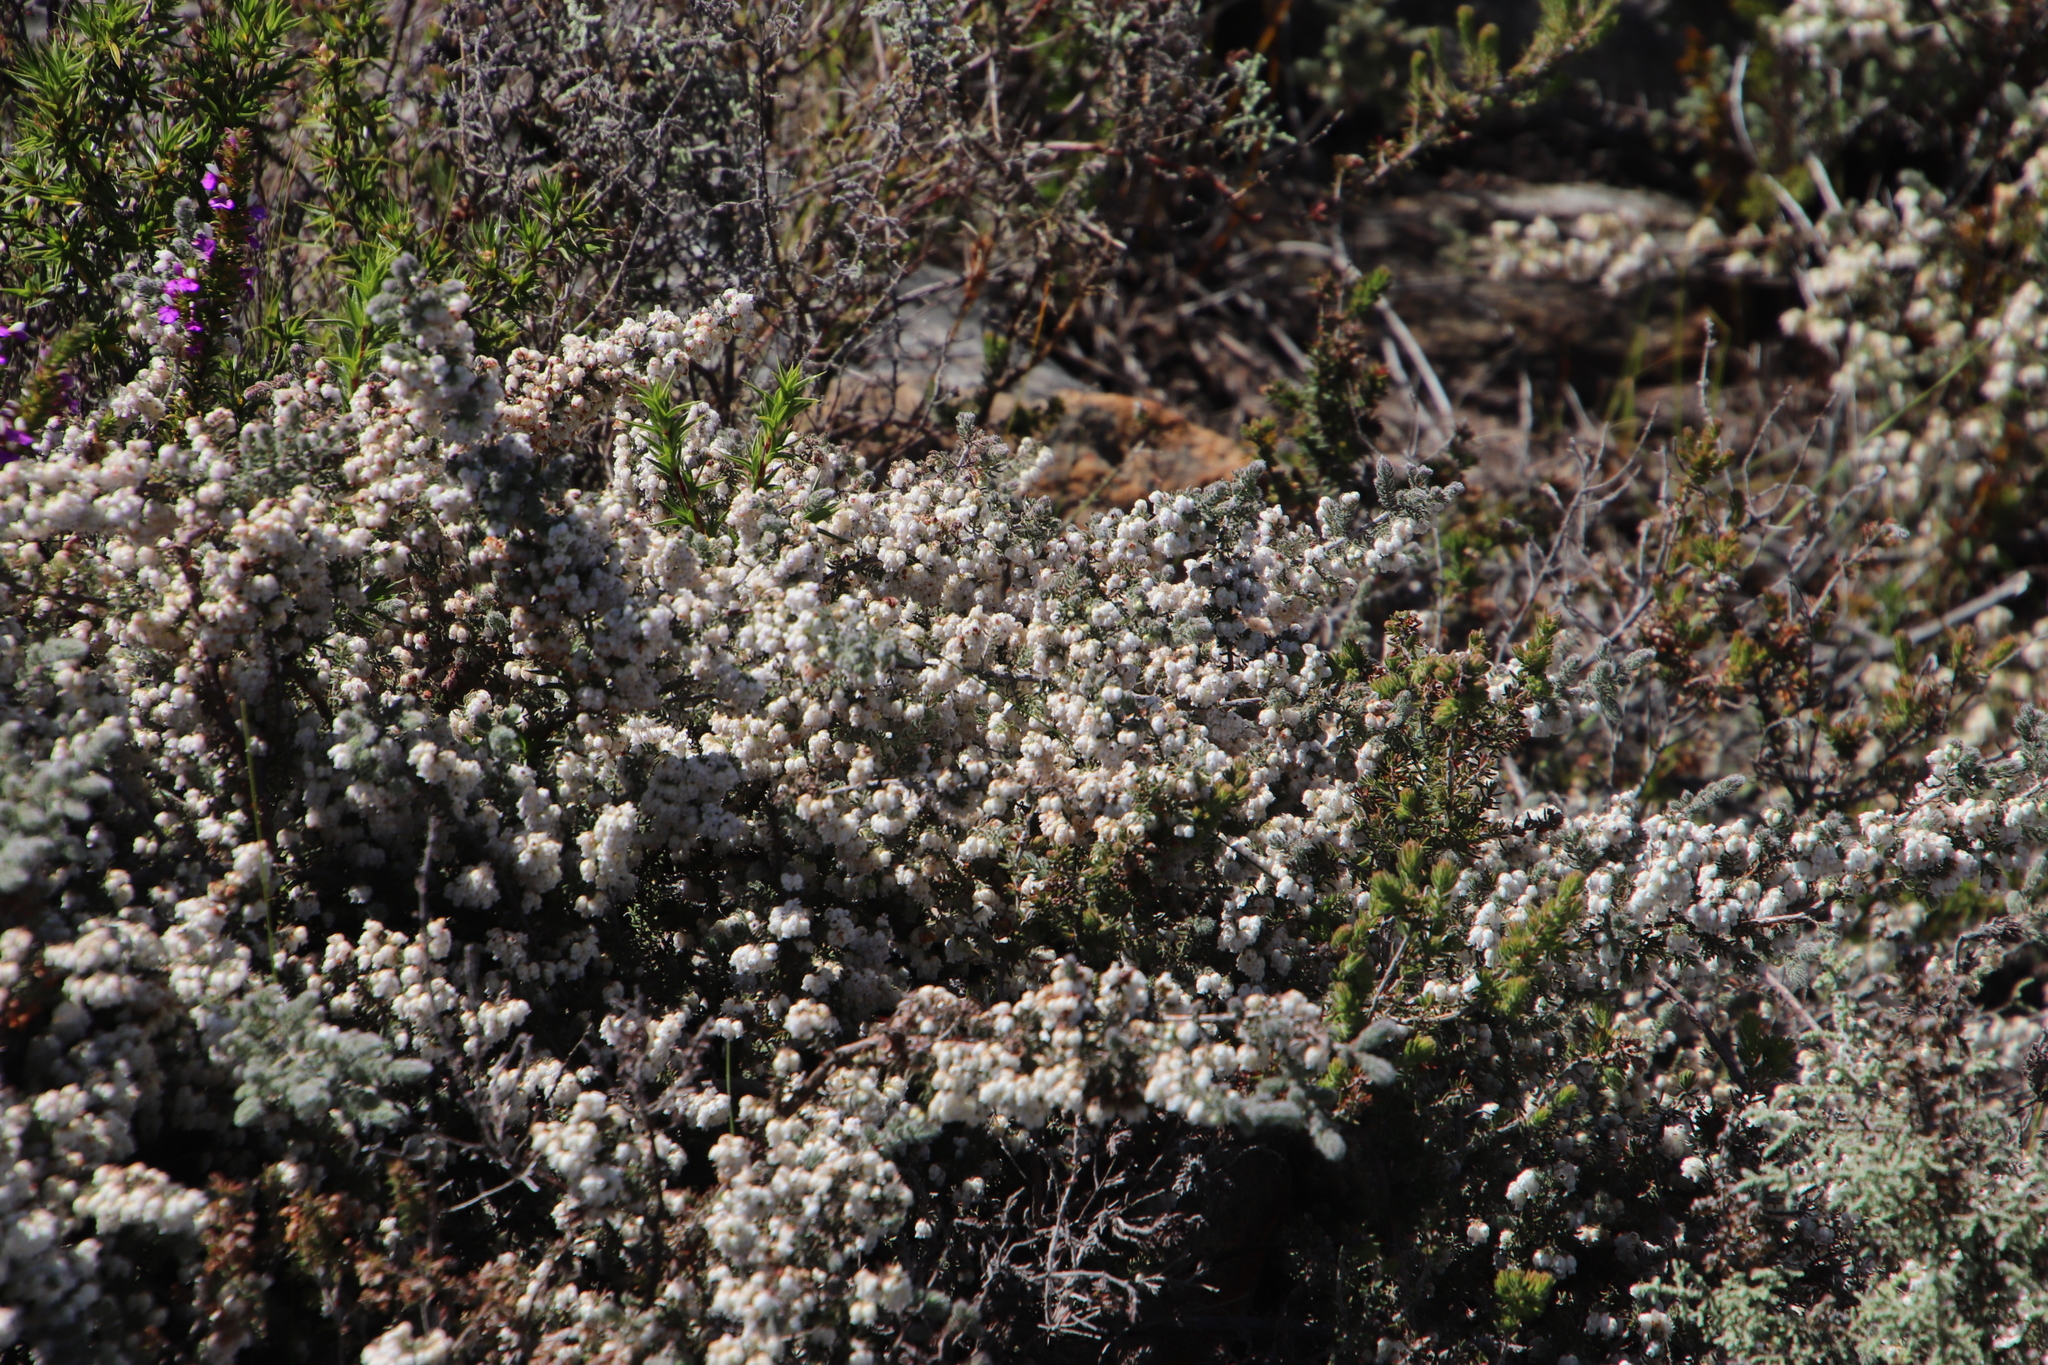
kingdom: Plantae
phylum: Tracheophyta
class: Magnoliopsida
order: Ericales
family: Ericaceae
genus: Erica
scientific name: Erica totta
